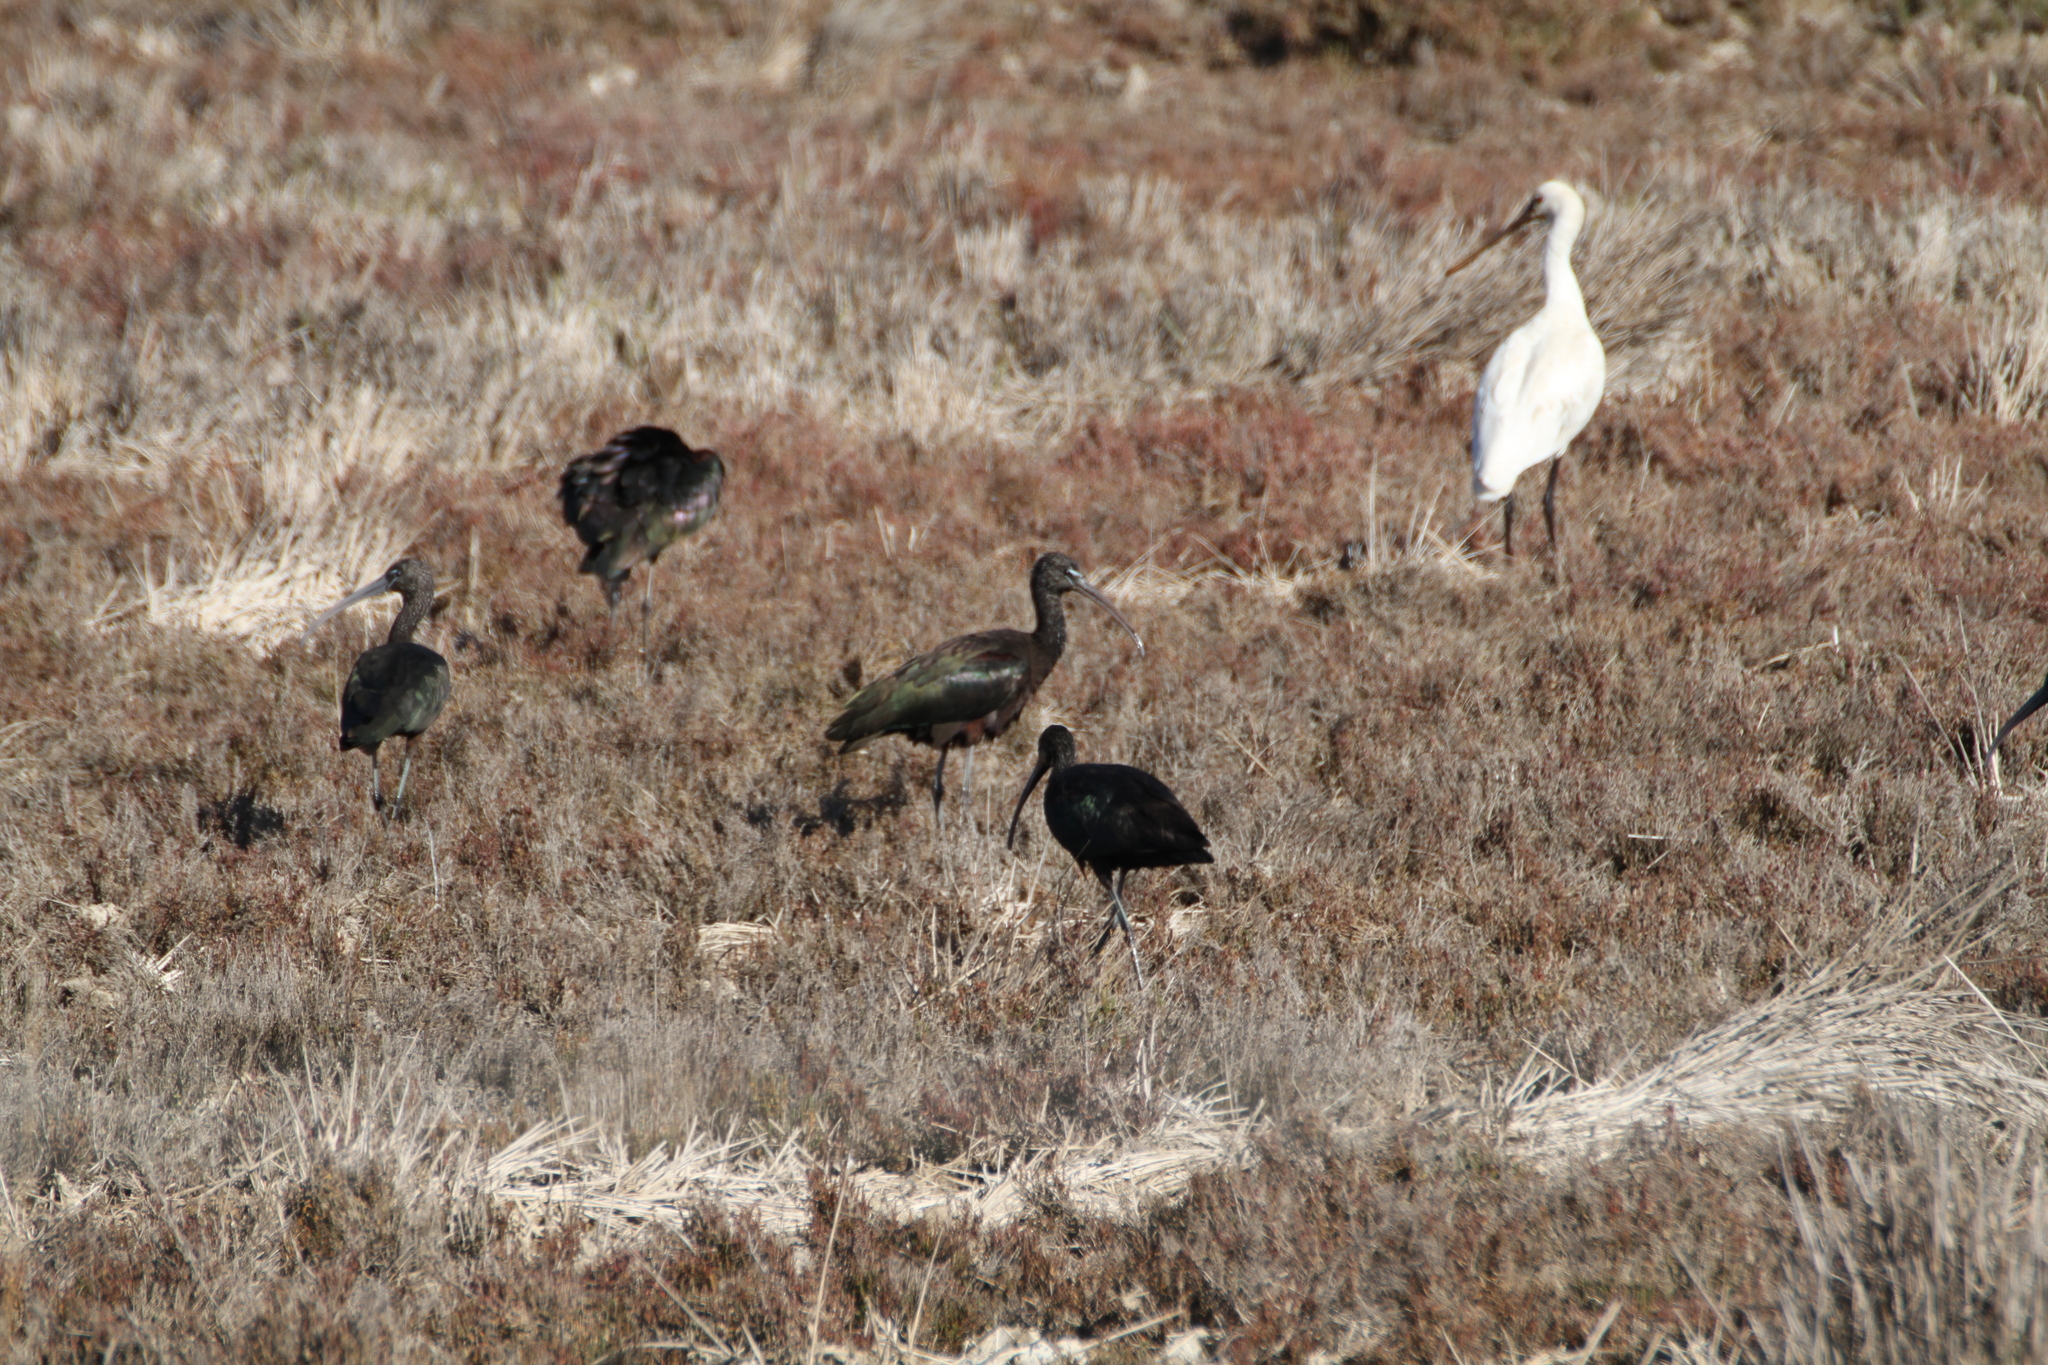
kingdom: Animalia
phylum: Chordata
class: Aves
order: Pelecaniformes
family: Threskiornithidae
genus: Plegadis
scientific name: Plegadis falcinellus
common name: Glossy ibis
